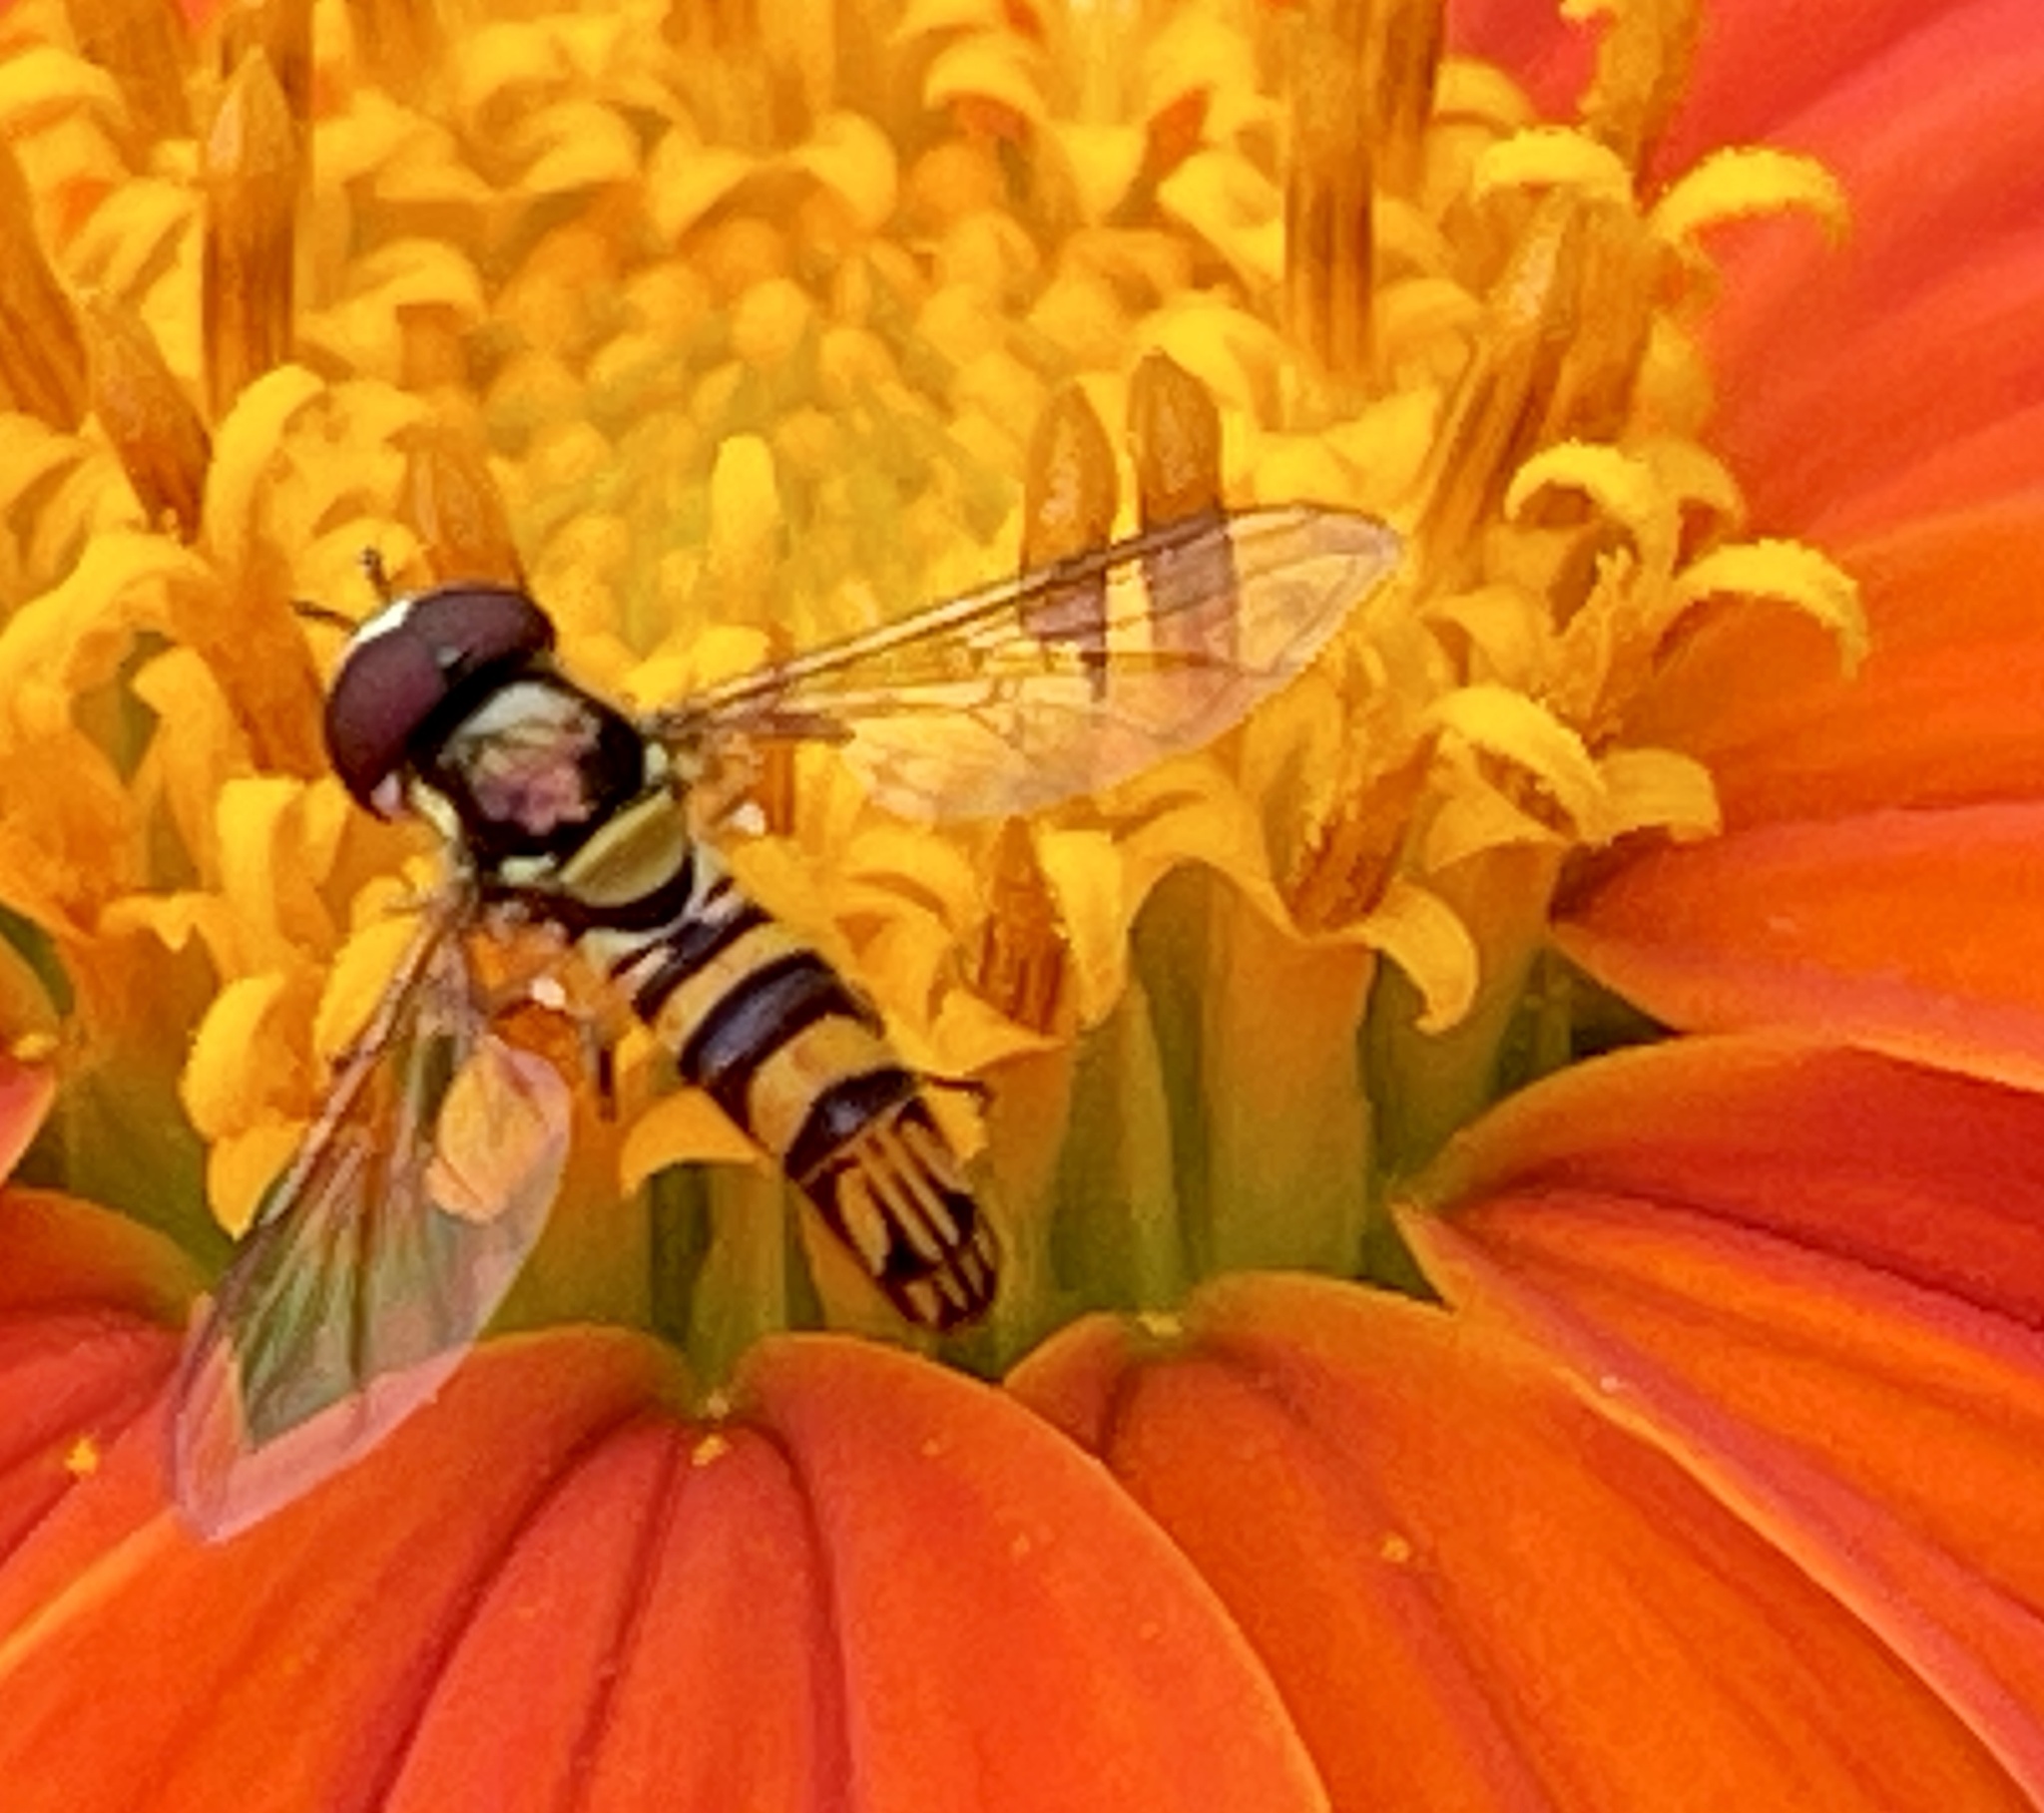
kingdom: Animalia
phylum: Arthropoda
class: Insecta
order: Diptera
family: Syrphidae
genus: Allograpta
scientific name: Allograpta obliqua
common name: Common oblique syrphid
